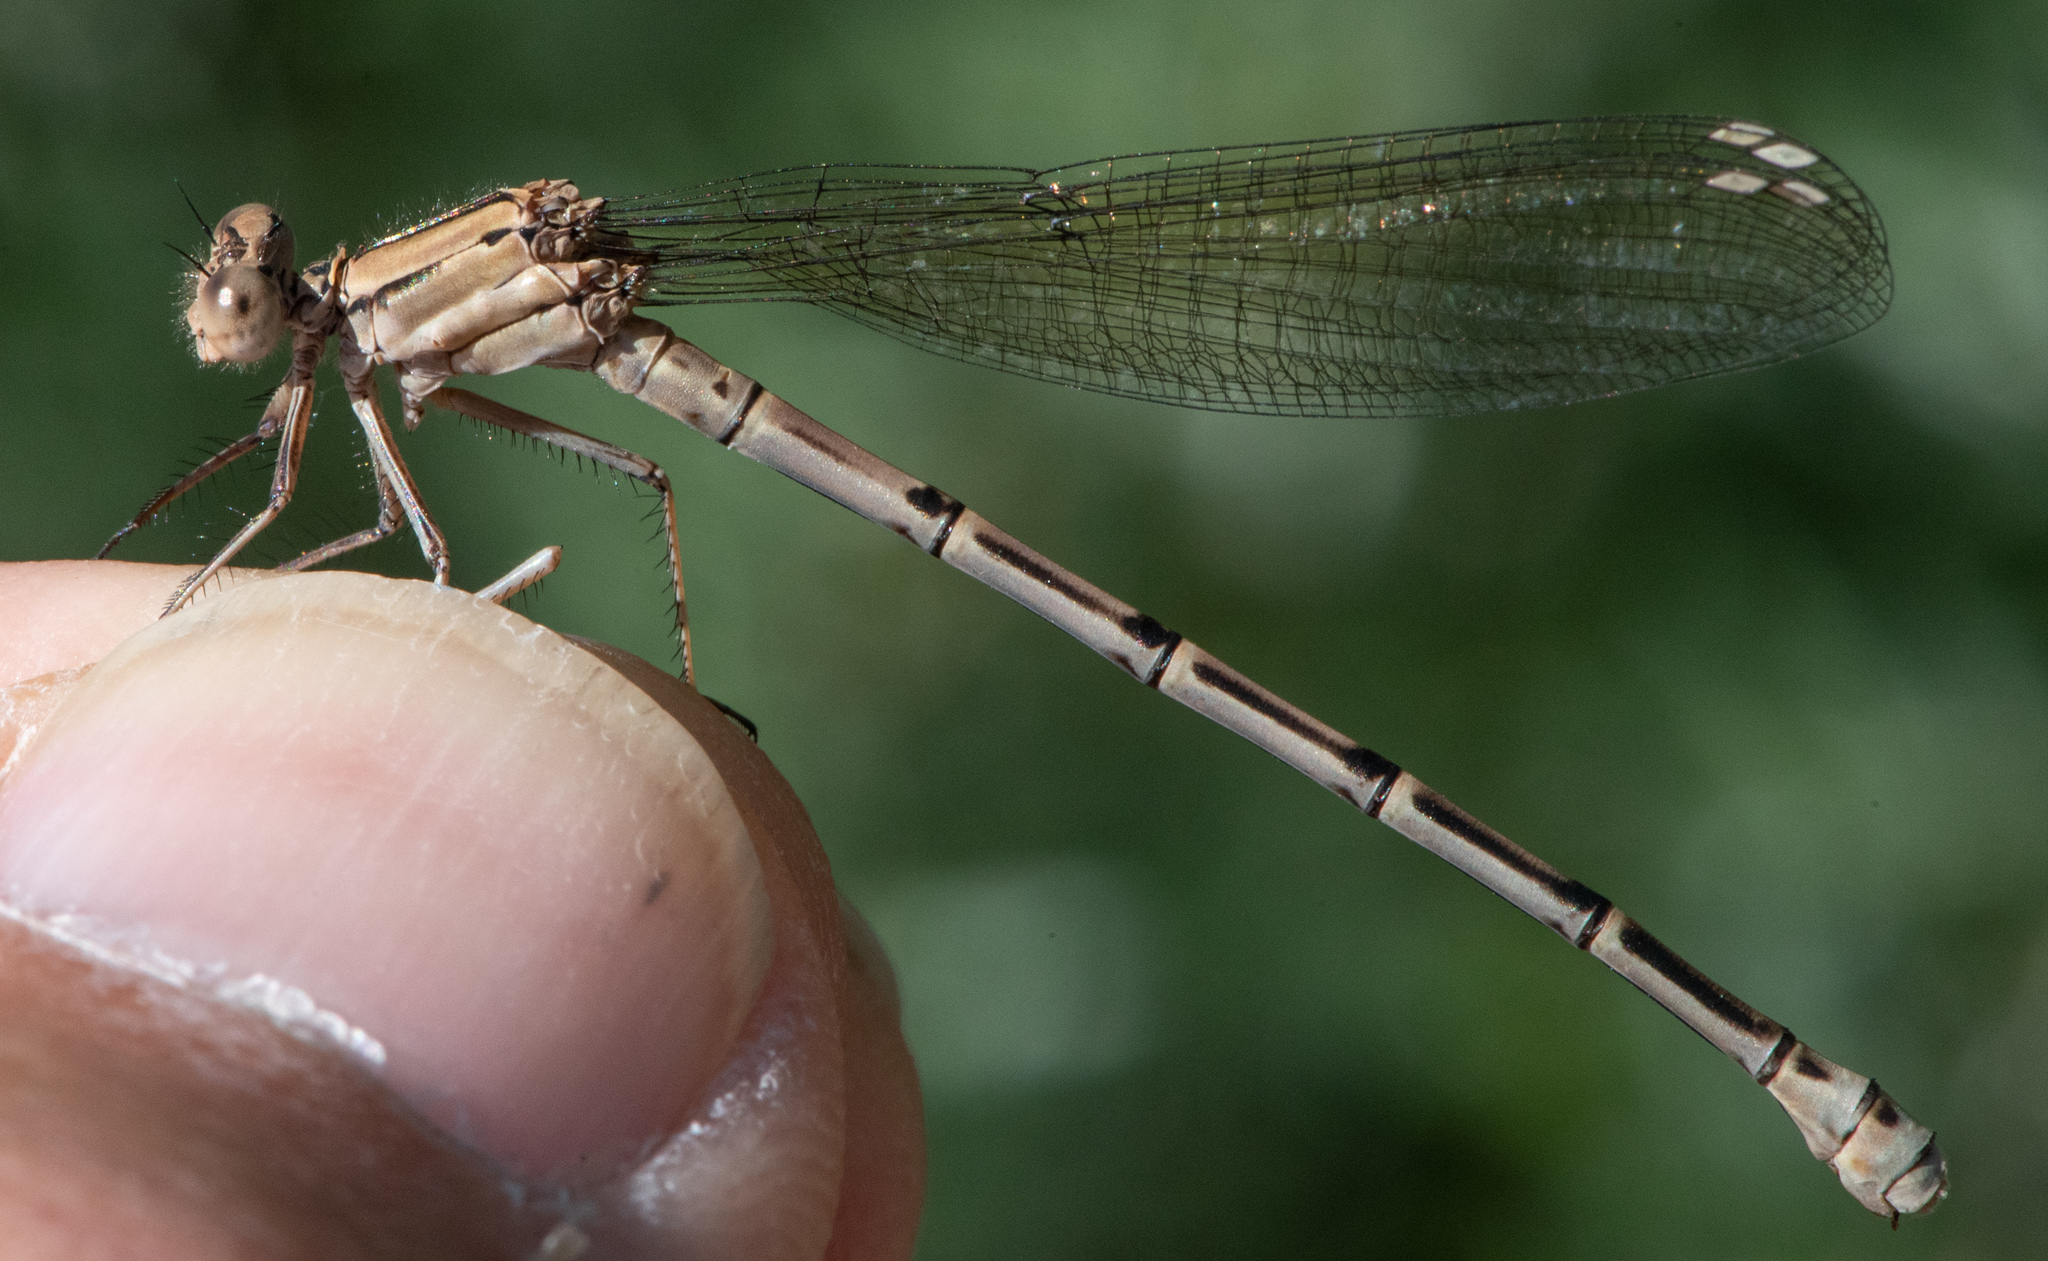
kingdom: Animalia
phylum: Arthropoda
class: Insecta
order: Odonata
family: Coenagrionidae
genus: Argia
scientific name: Argia emma
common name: Emma's dancer
